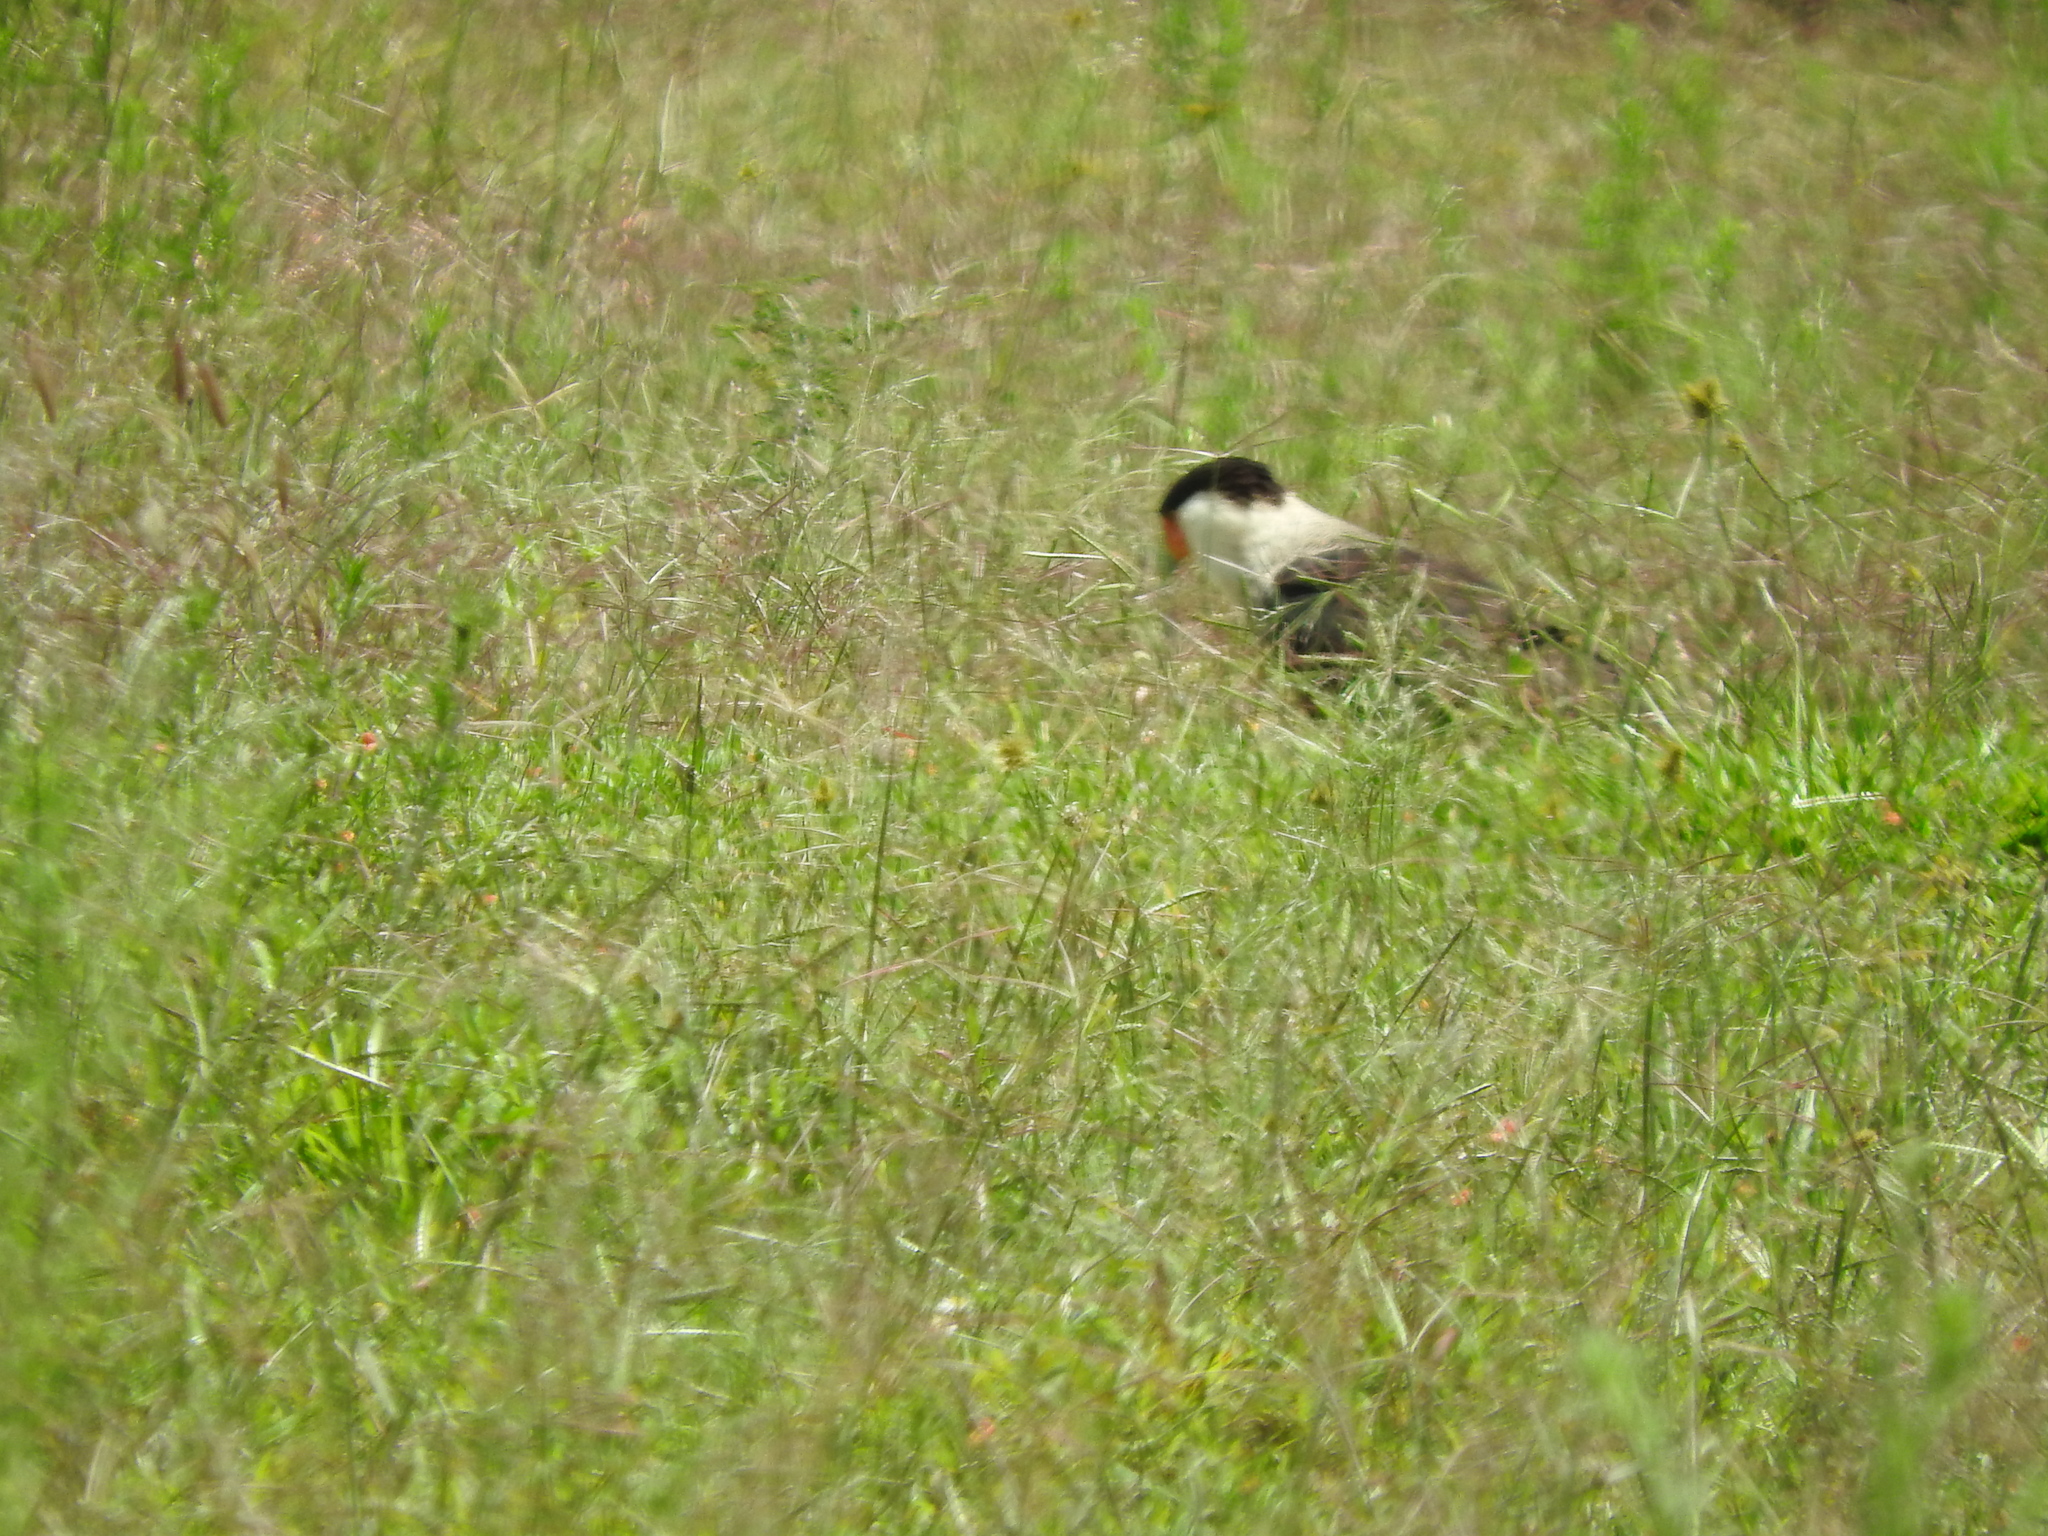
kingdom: Animalia
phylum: Chordata
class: Aves
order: Falconiformes
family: Falconidae
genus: Caracara
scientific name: Caracara plancus
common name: Southern caracara
